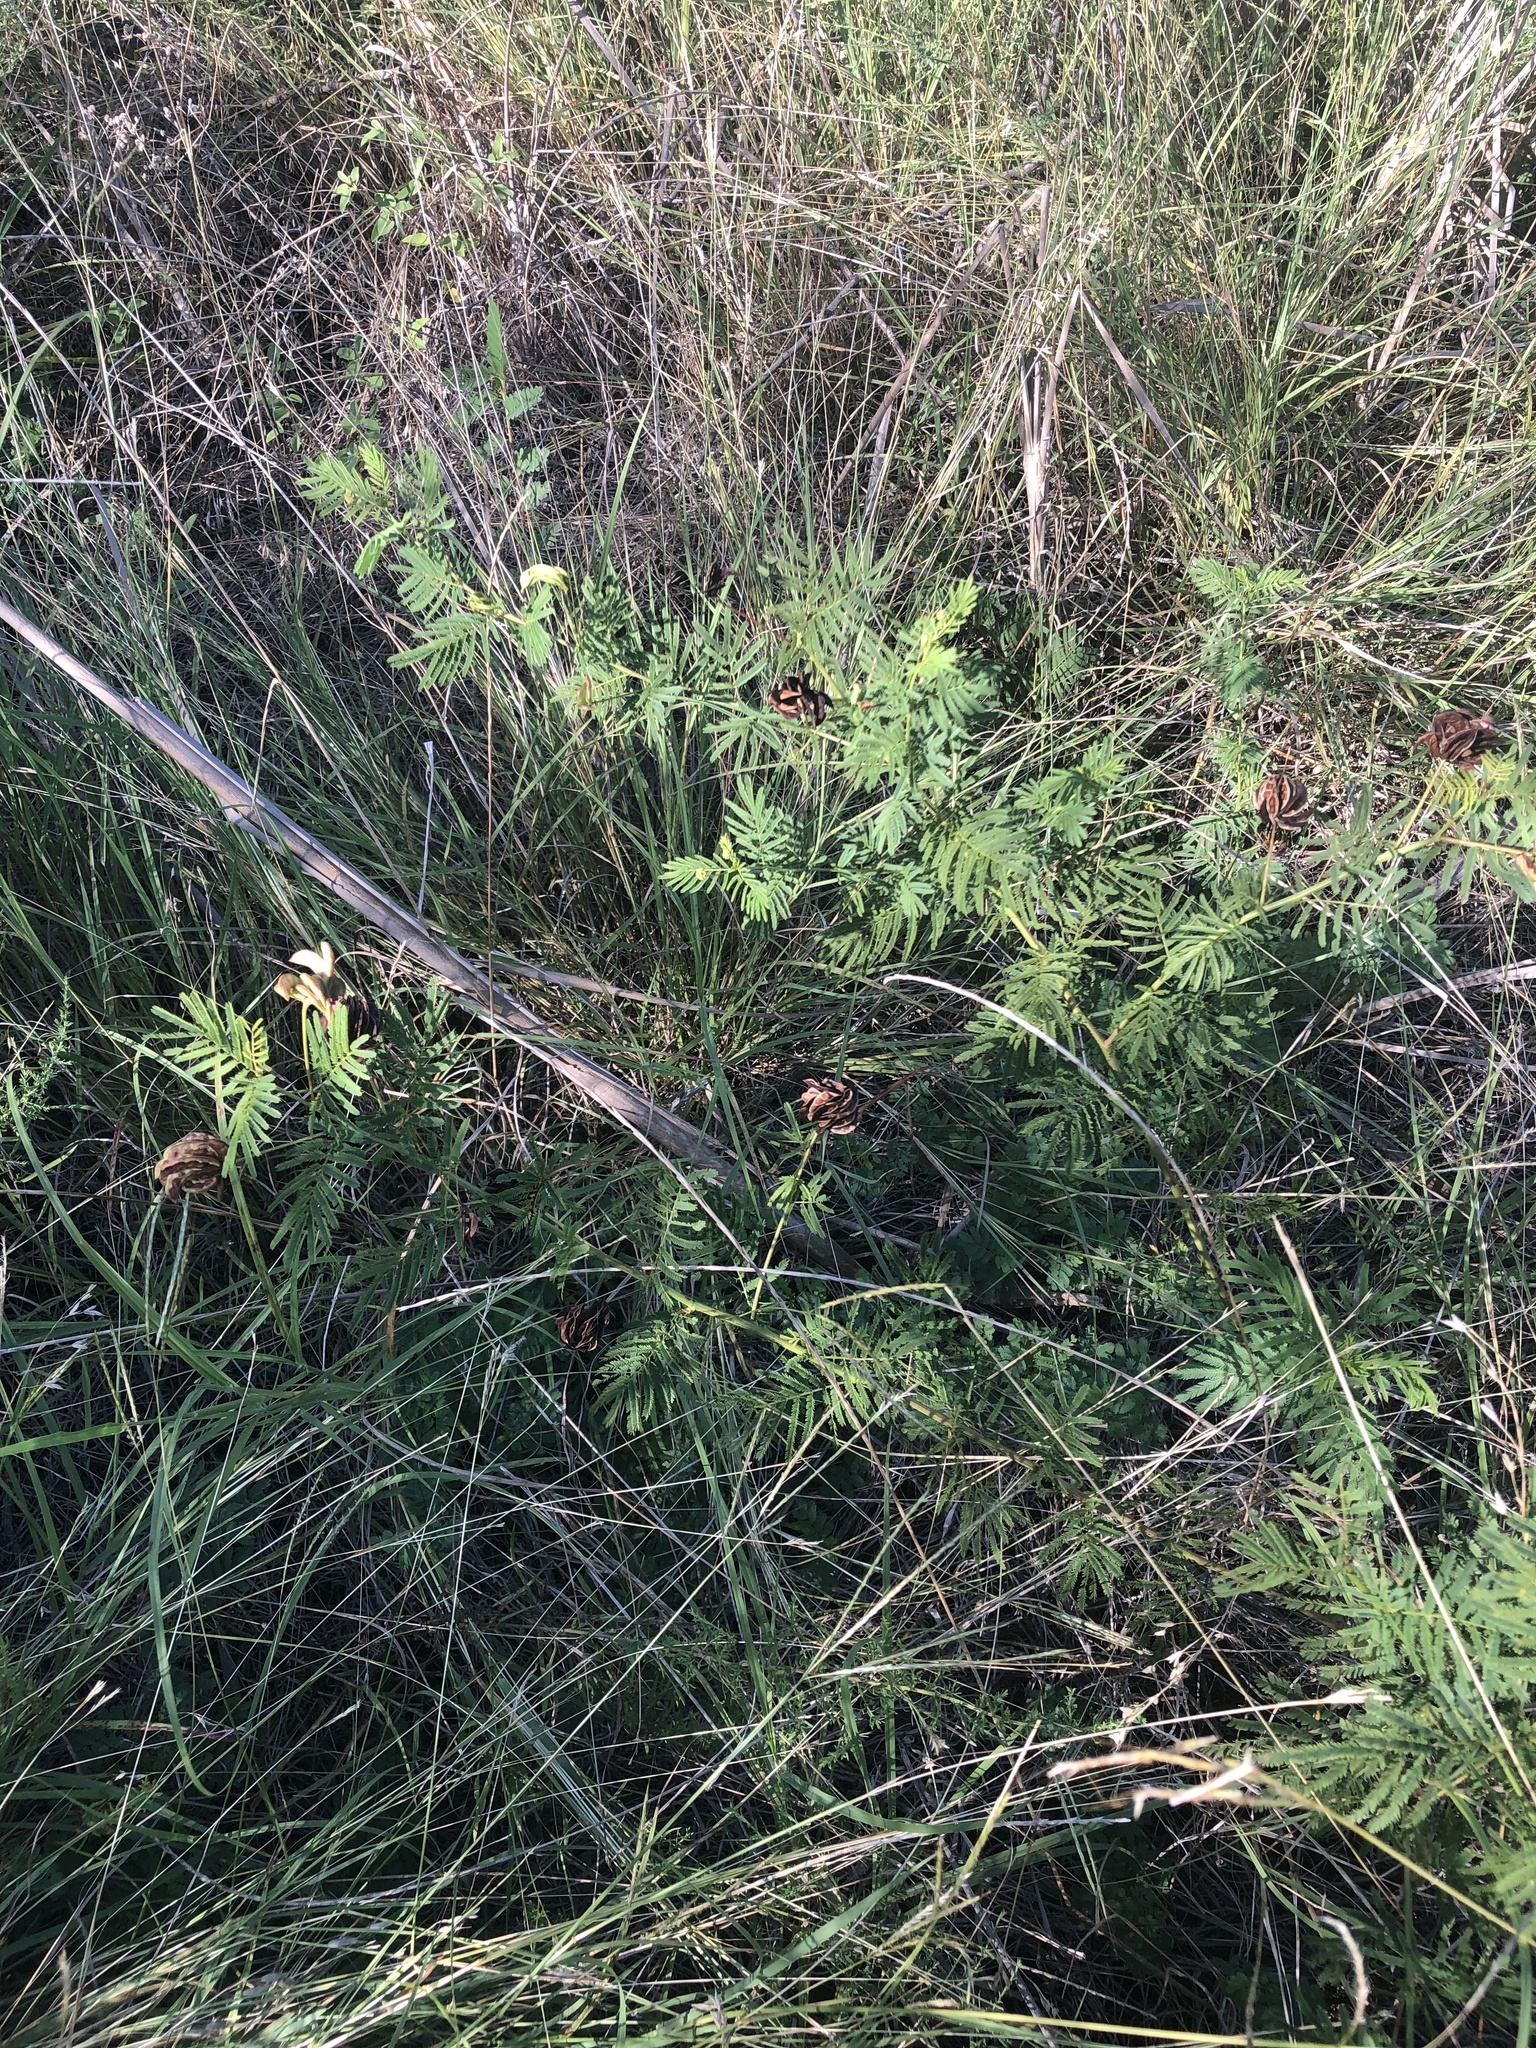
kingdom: Plantae
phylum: Tracheophyta
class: Magnoliopsida
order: Fabales
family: Fabaceae
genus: Desmanthus
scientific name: Desmanthus illinoensis
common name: Illinois bundle-flower
